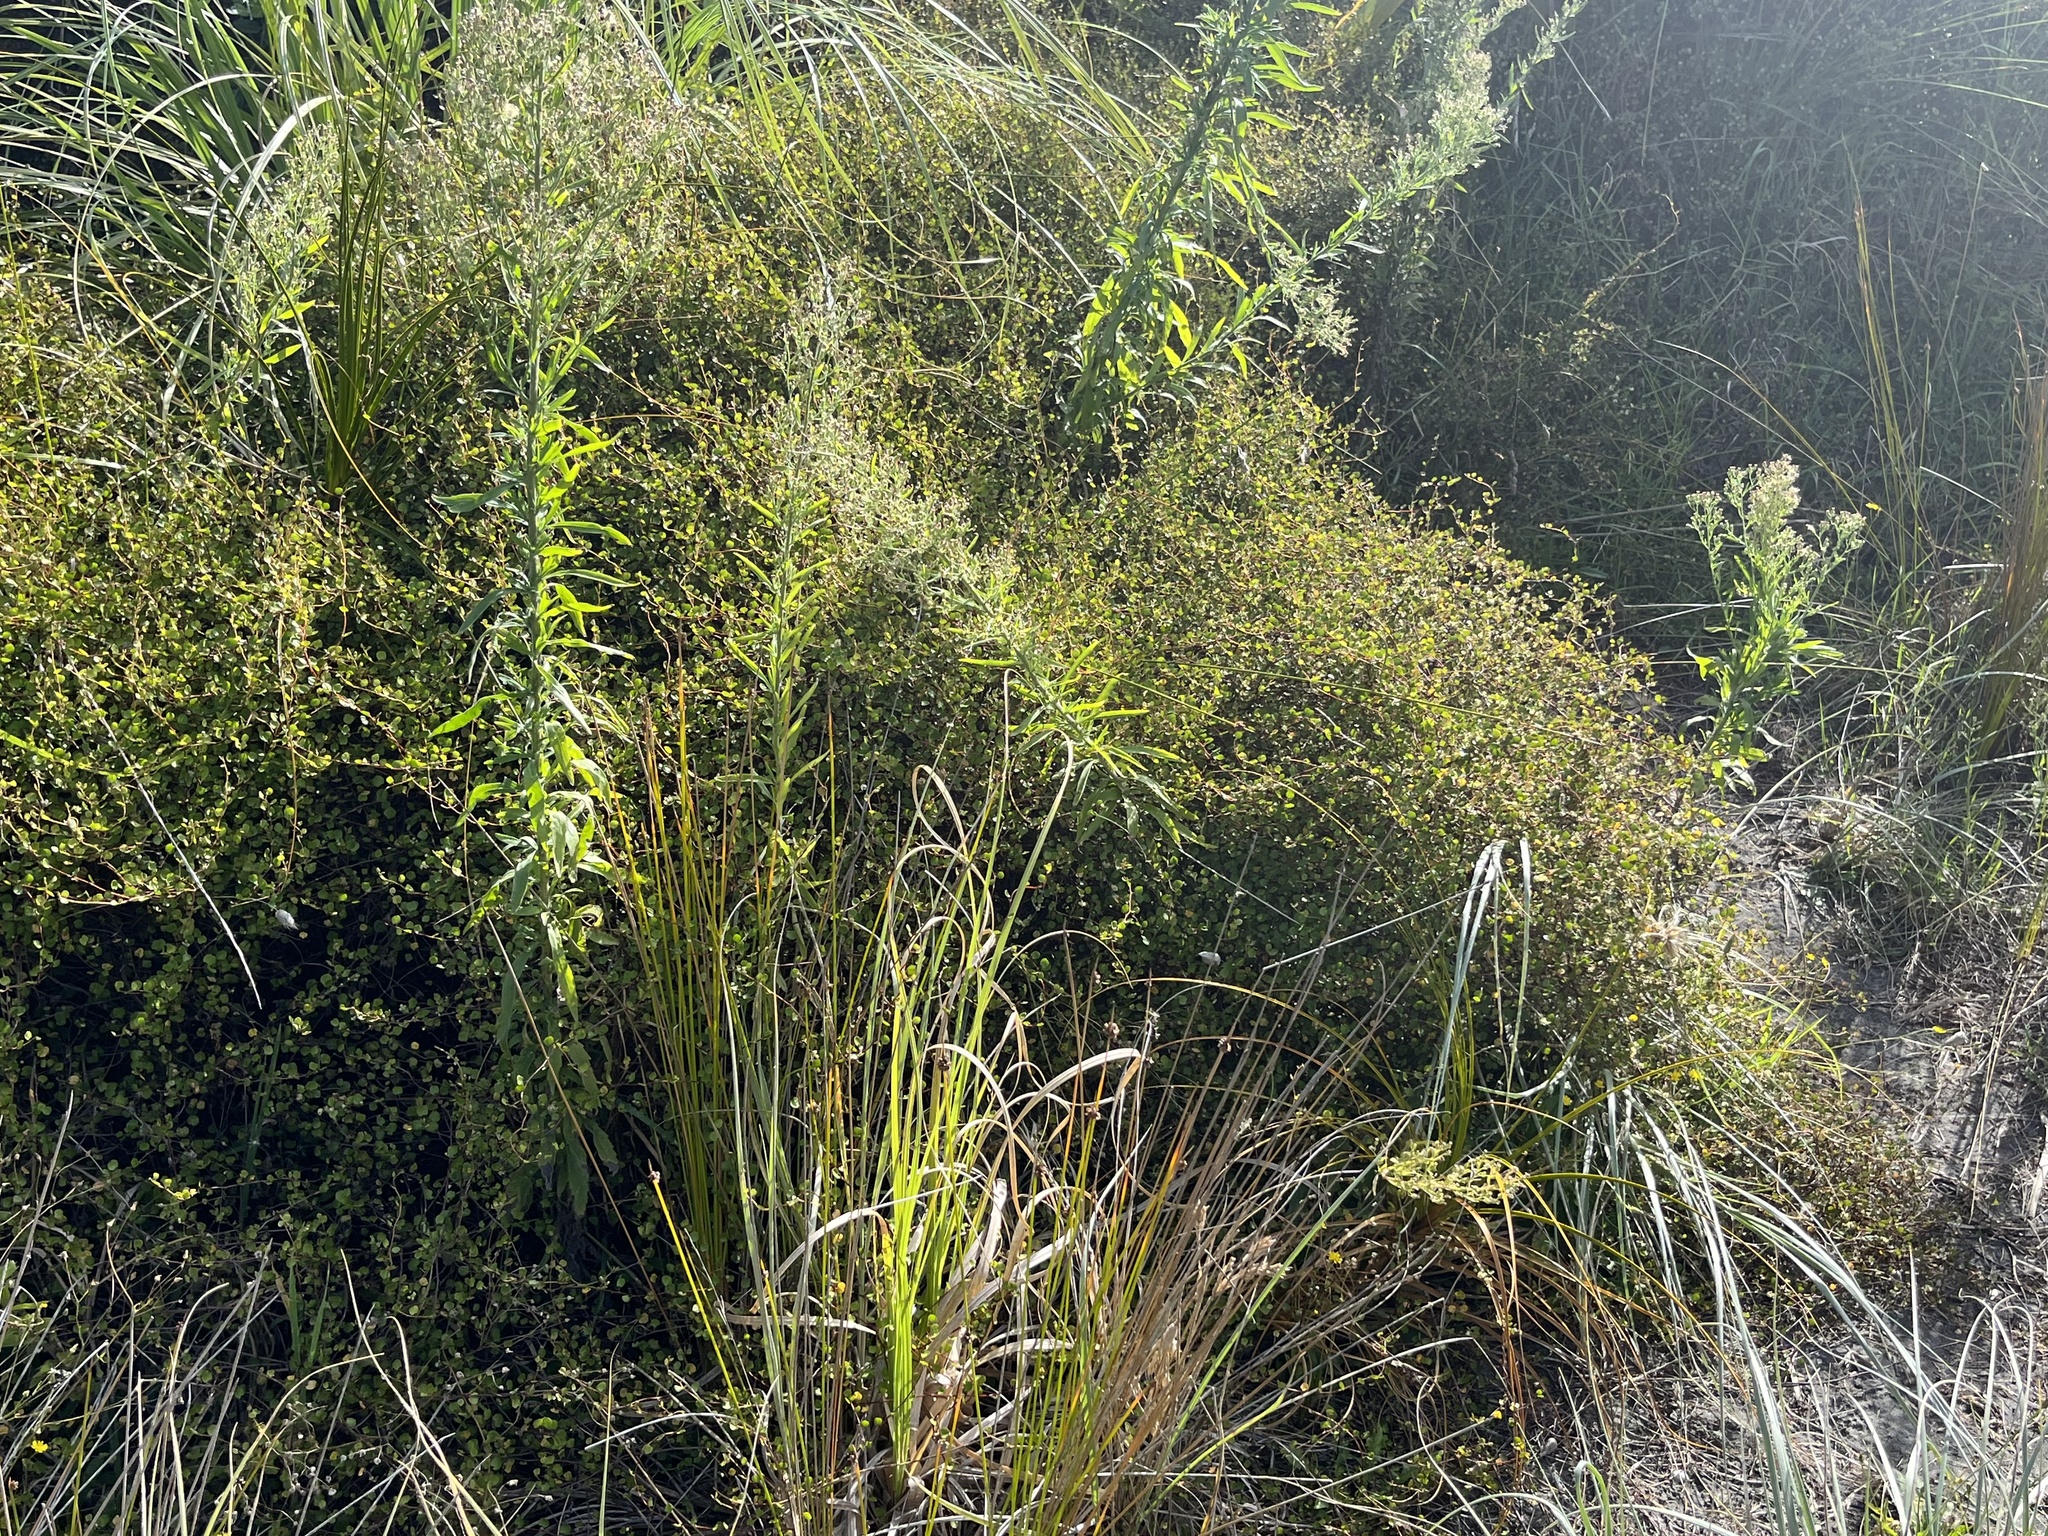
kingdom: Plantae
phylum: Tracheophyta
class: Magnoliopsida
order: Gentianales
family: Rubiaceae
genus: Coprosma
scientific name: Coprosma acerosa
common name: Sand coprosma
